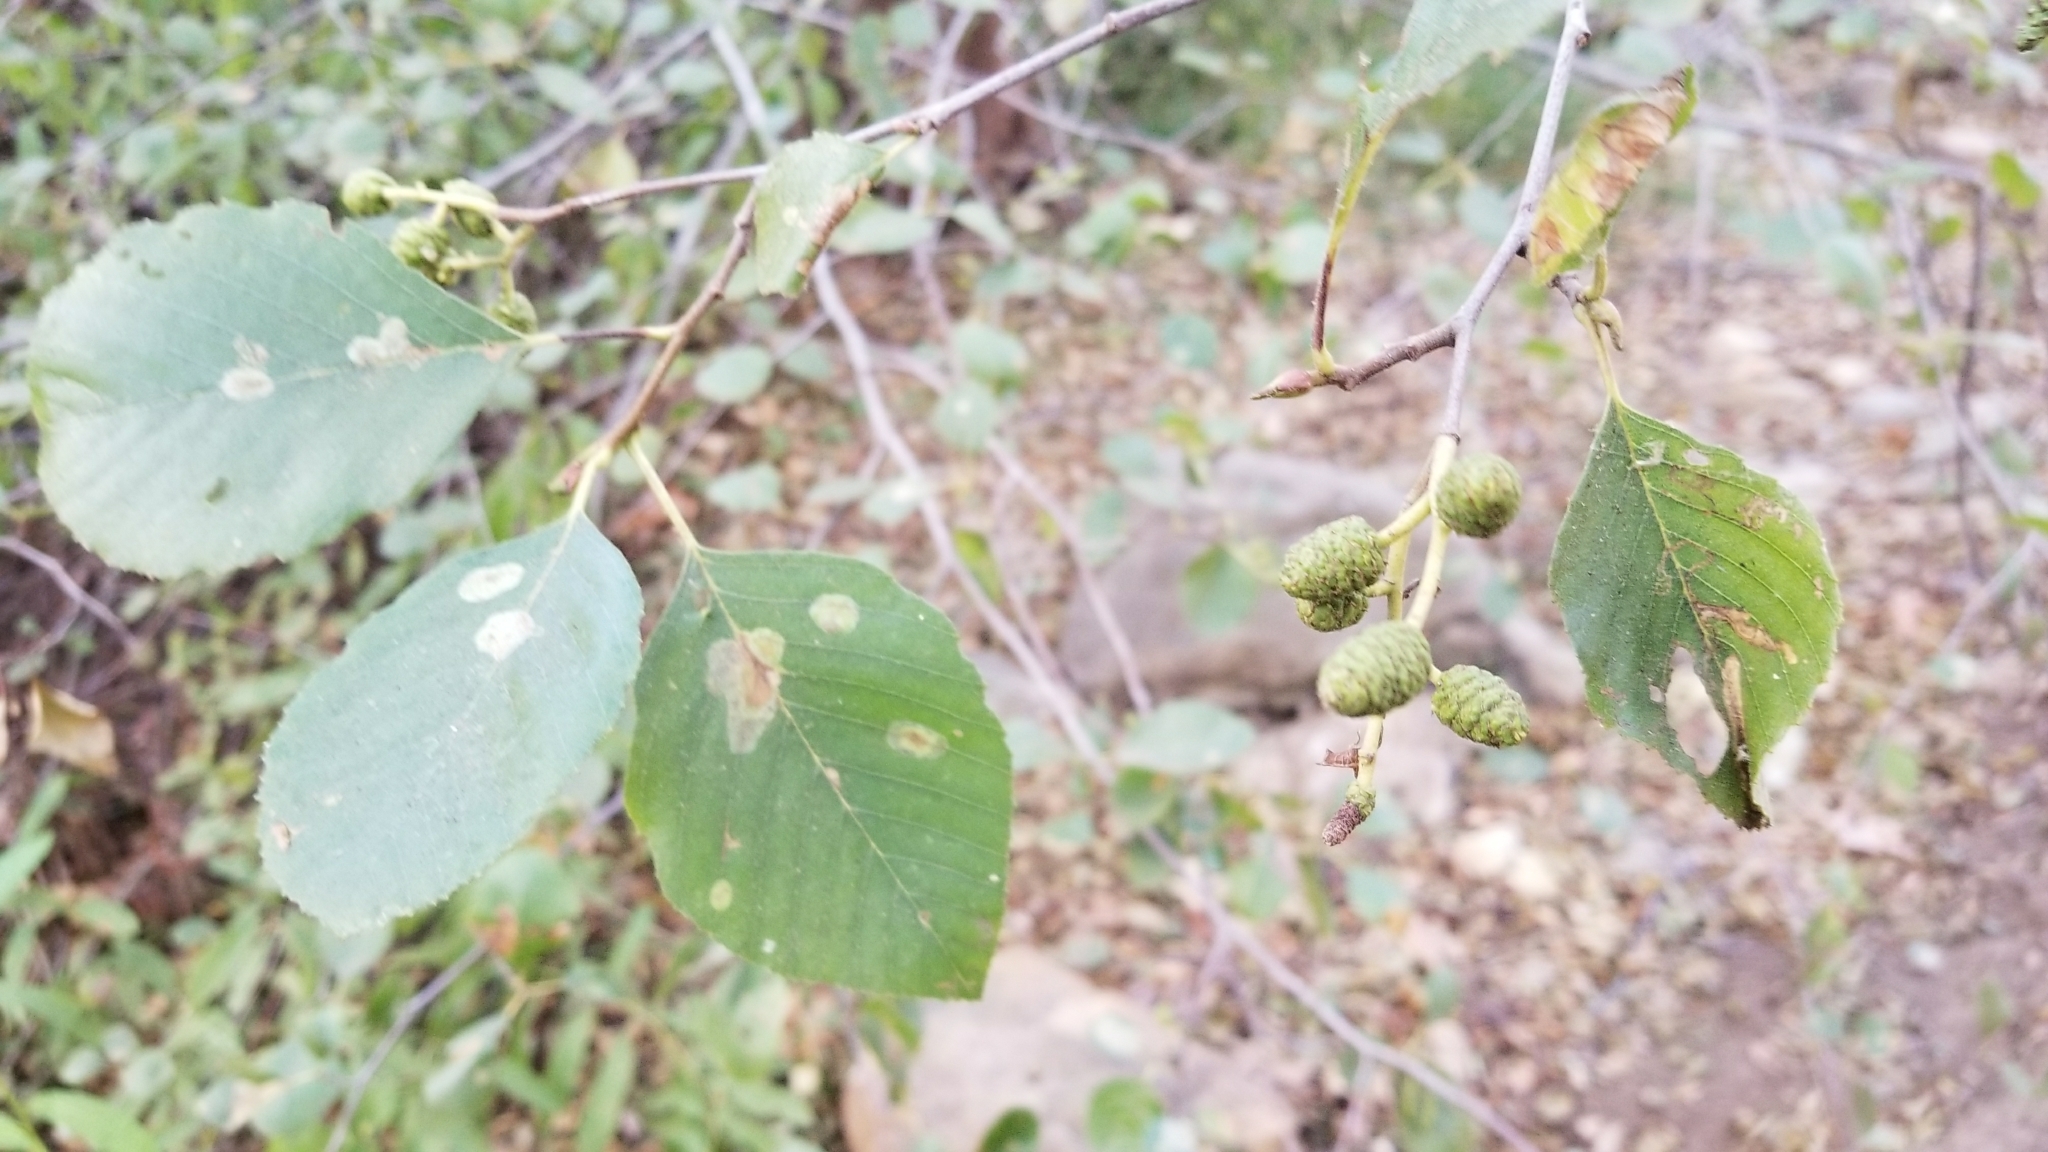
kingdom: Plantae
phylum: Tracheophyta
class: Magnoliopsida
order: Fagales
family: Betulaceae
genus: Alnus
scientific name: Alnus rhombifolia
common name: California alder
